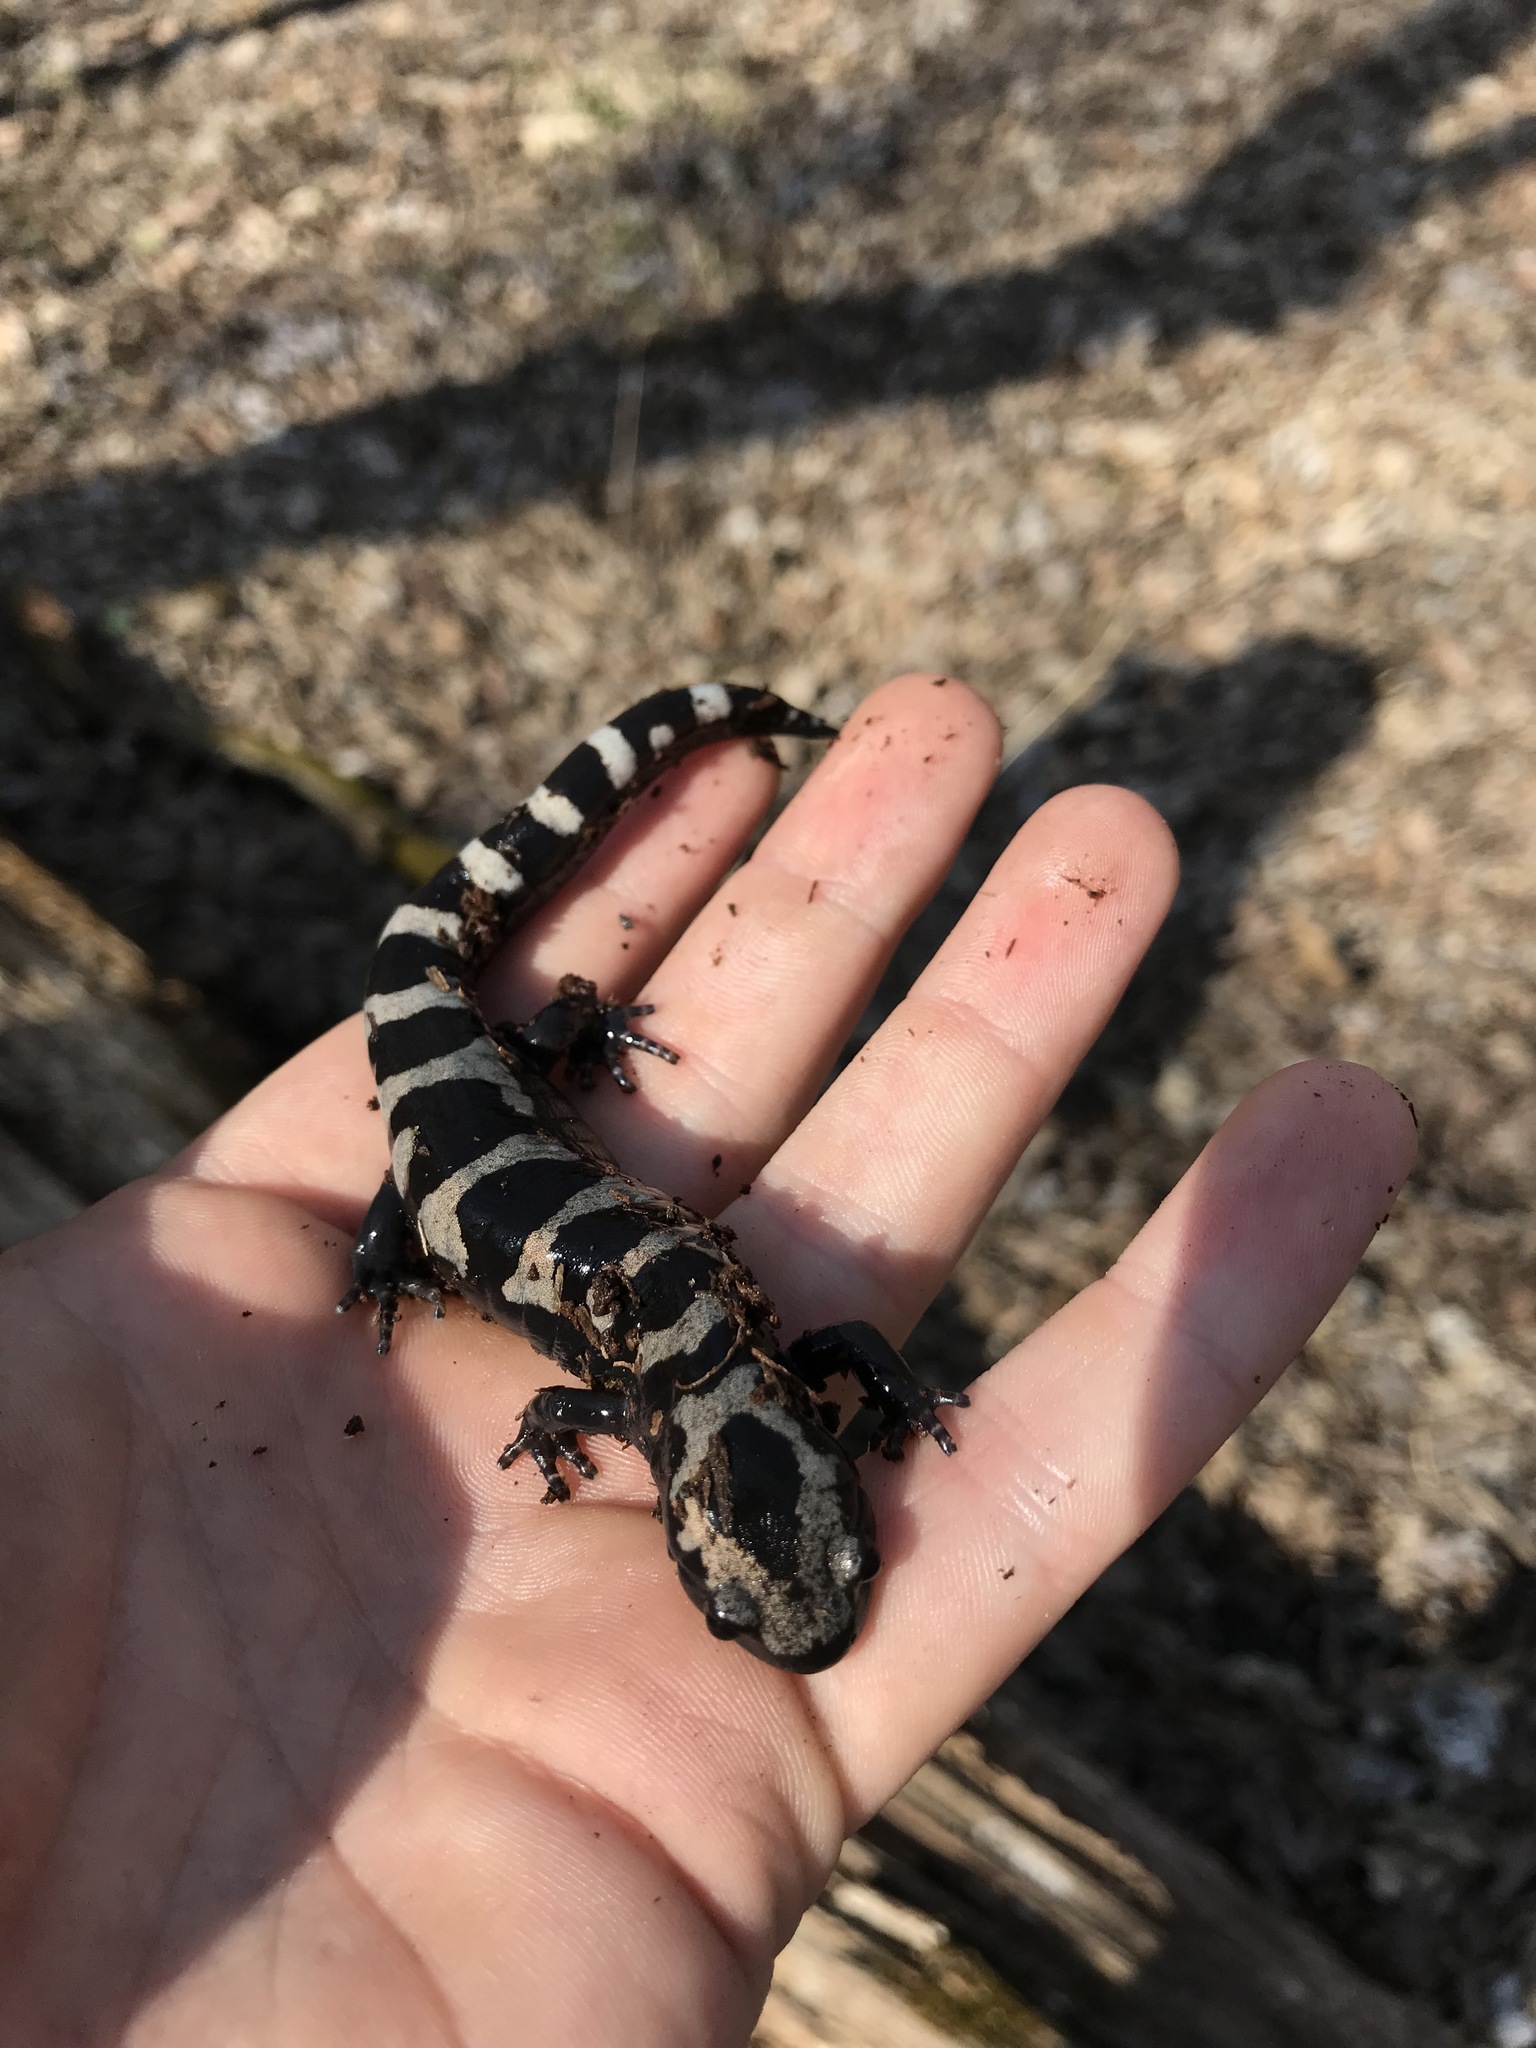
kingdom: Animalia
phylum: Chordata
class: Amphibia
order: Caudata
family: Ambystomatidae
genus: Ambystoma
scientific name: Ambystoma opacum
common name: Marbled salamander
